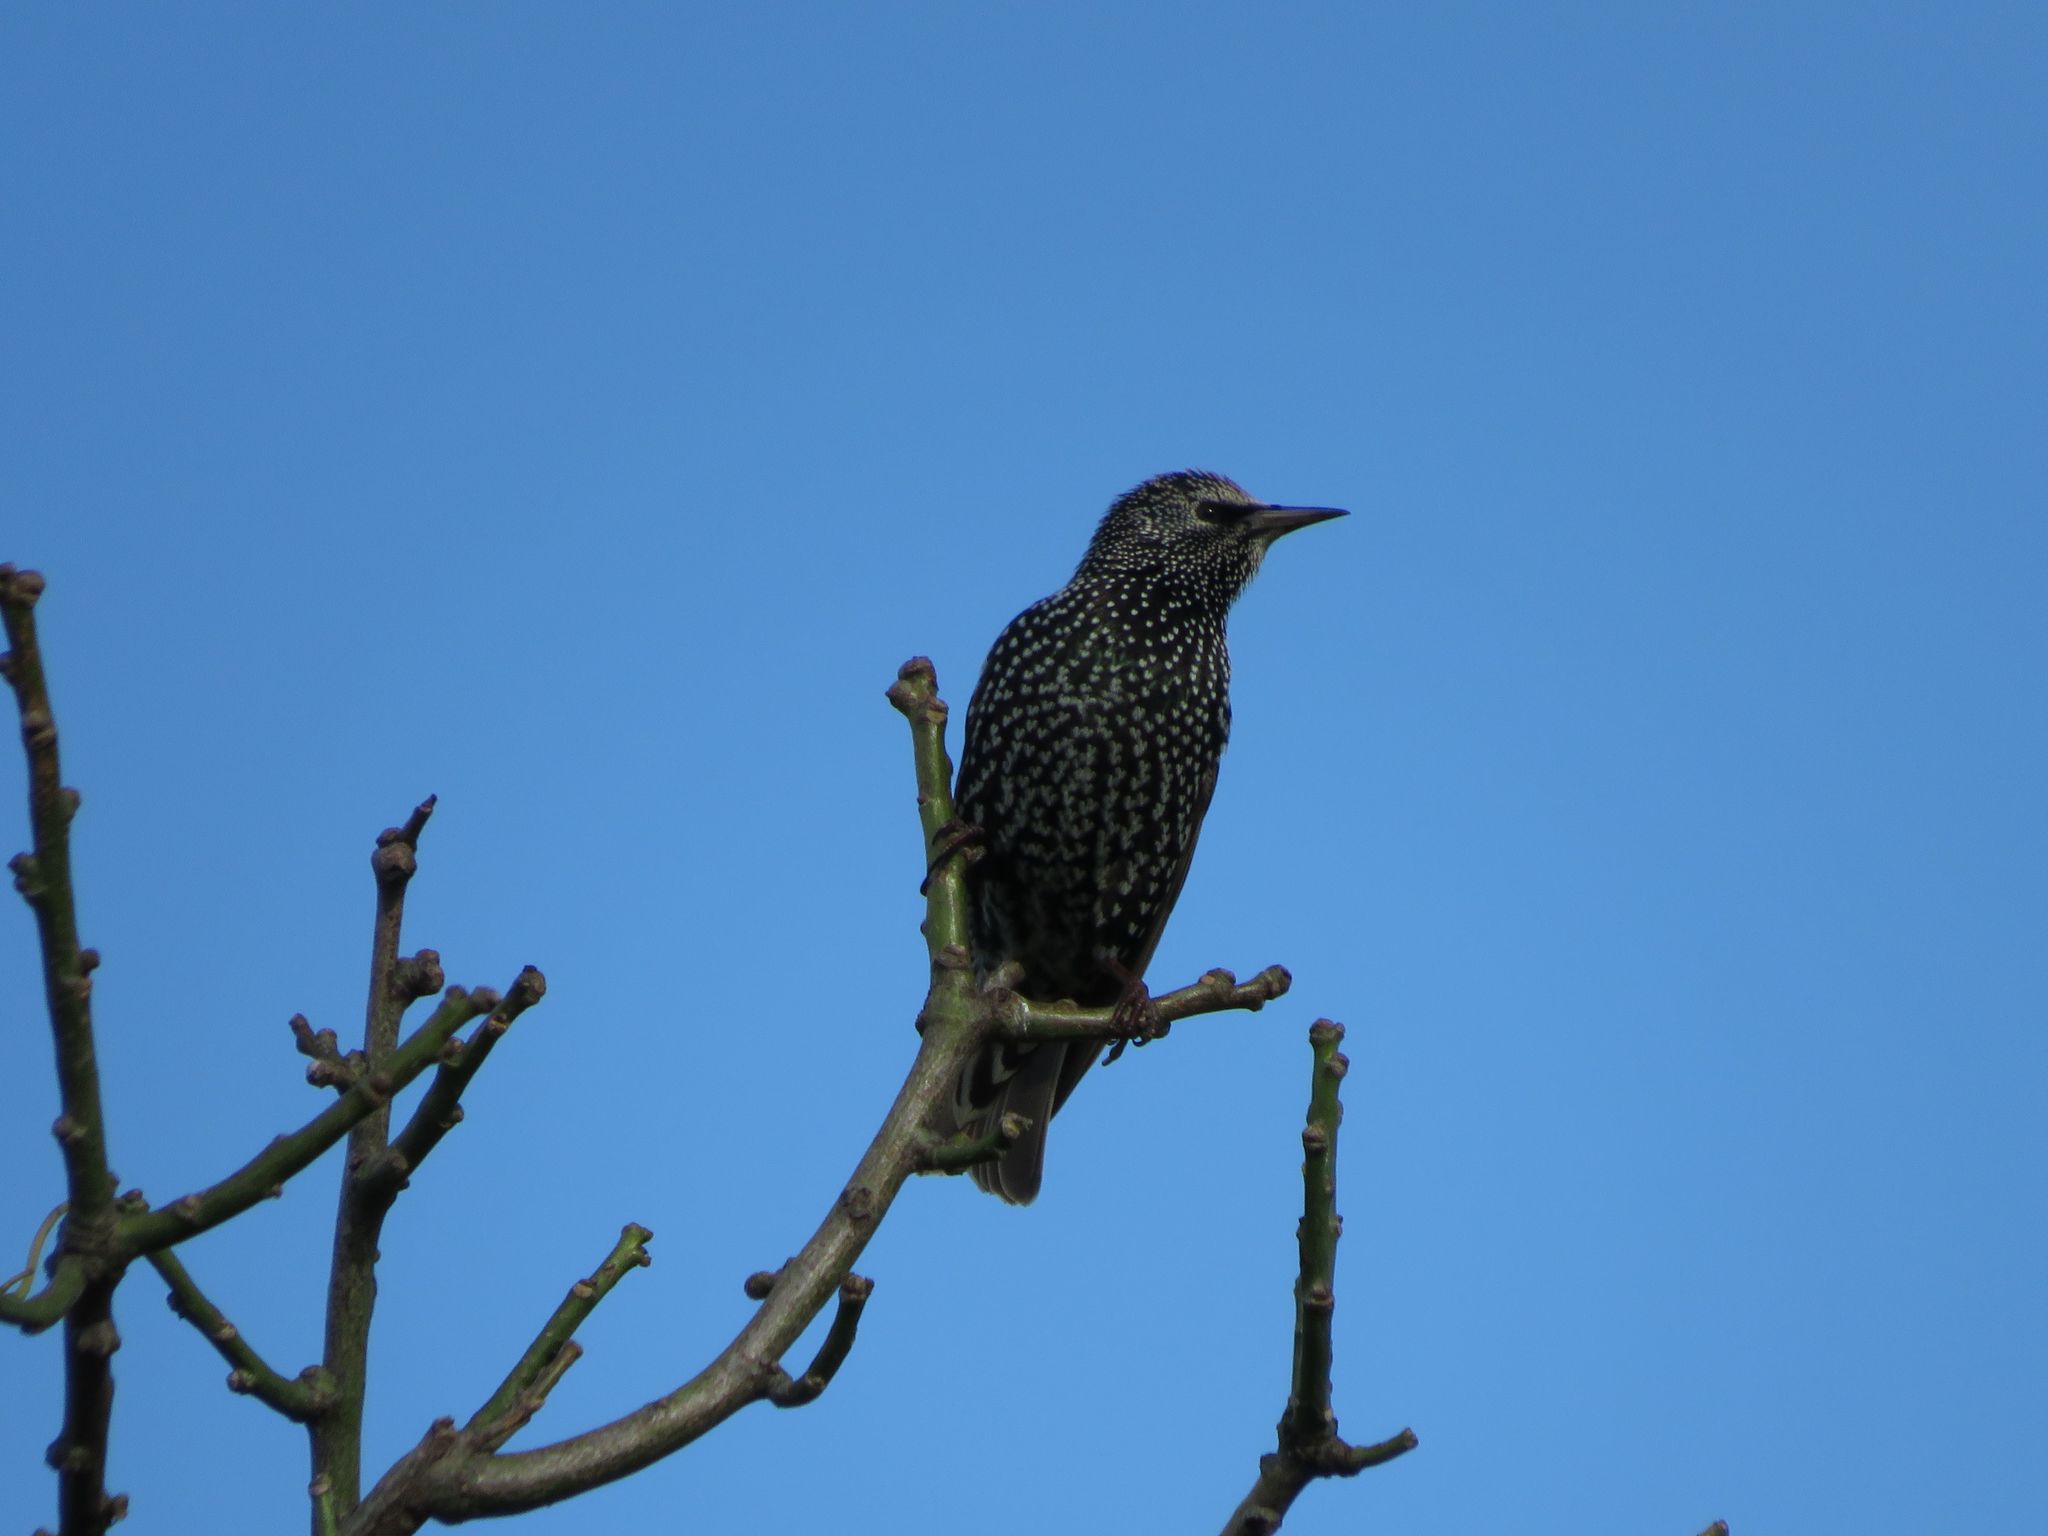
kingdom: Animalia
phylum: Chordata
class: Aves
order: Passeriformes
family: Sturnidae
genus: Sturnus
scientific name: Sturnus vulgaris
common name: Common starling
